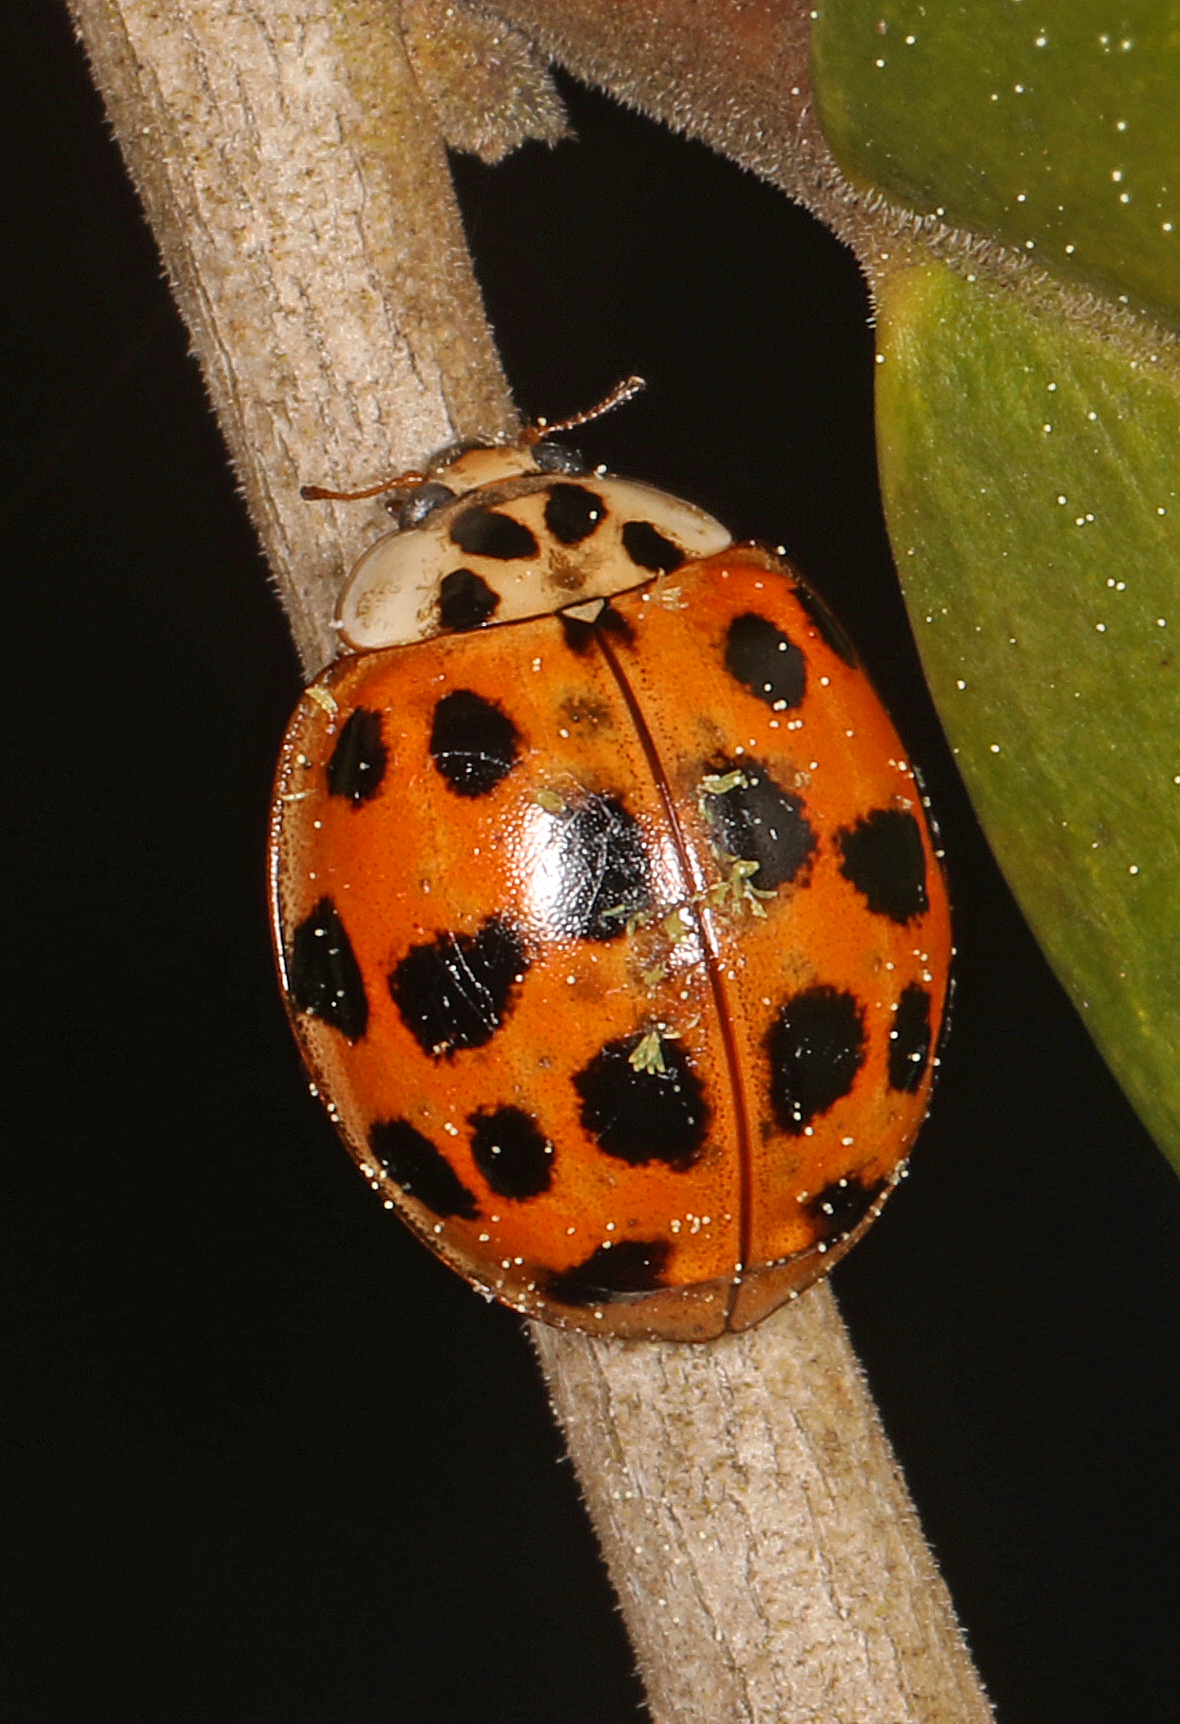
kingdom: Animalia
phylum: Arthropoda
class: Insecta
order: Coleoptera
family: Coccinellidae
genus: Harmonia
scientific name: Harmonia axyridis
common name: Harlequin ladybird
